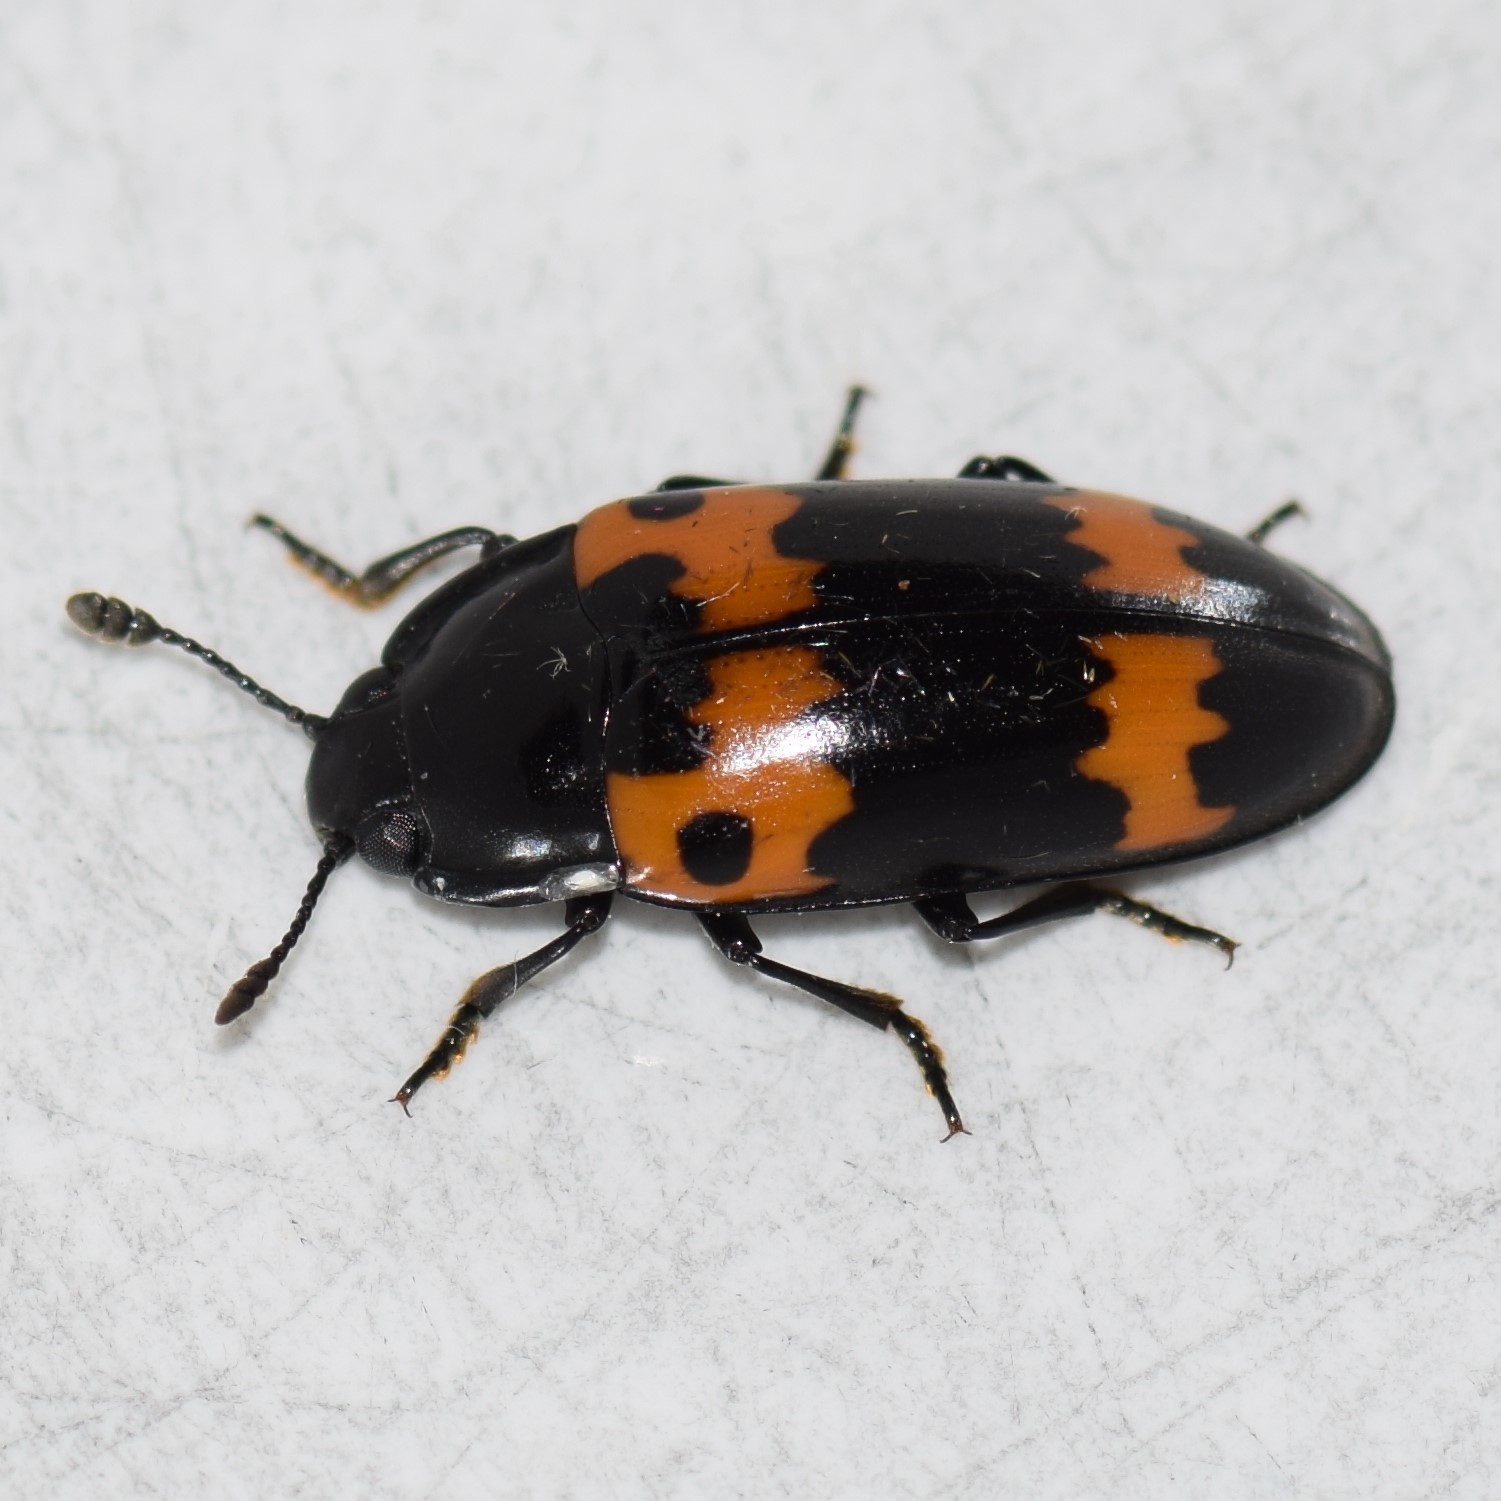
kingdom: Animalia
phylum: Arthropoda
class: Insecta
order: Coleoptera
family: Erotylidae
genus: Megalodacne
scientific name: Megalodacne fasciata
